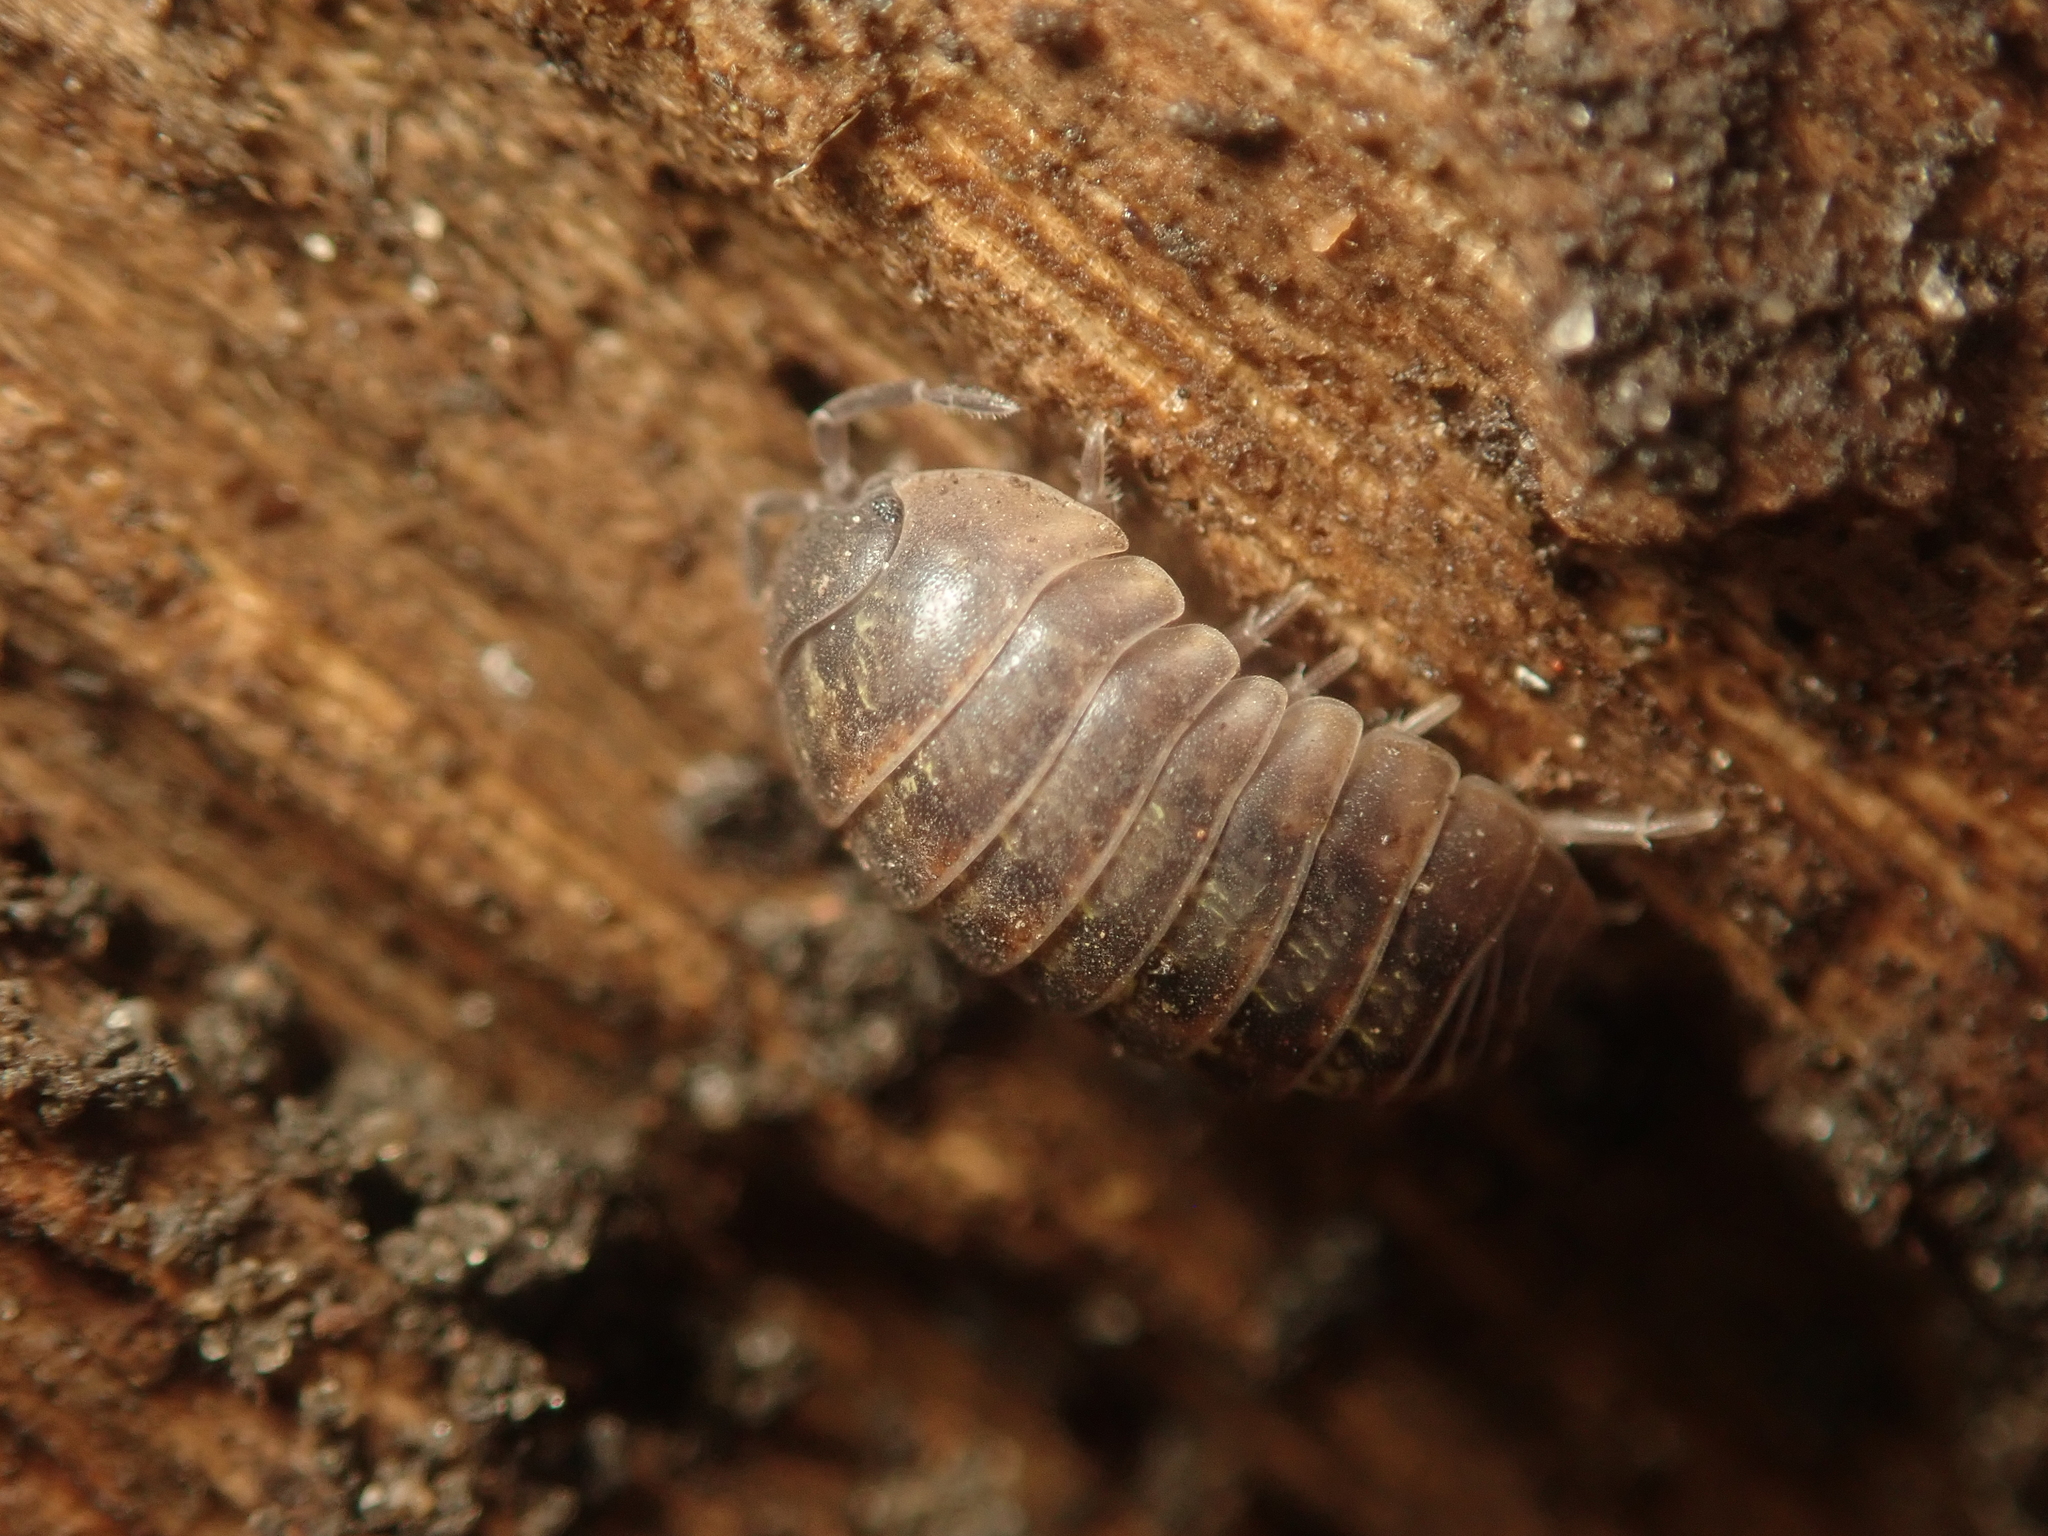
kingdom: Animalia
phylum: Arthropoda
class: Malacostraca
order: Isopoda
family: Armadillidiidae
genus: Armadillidium
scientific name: Armadillidium vulgare
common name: Common pill woodlouse
